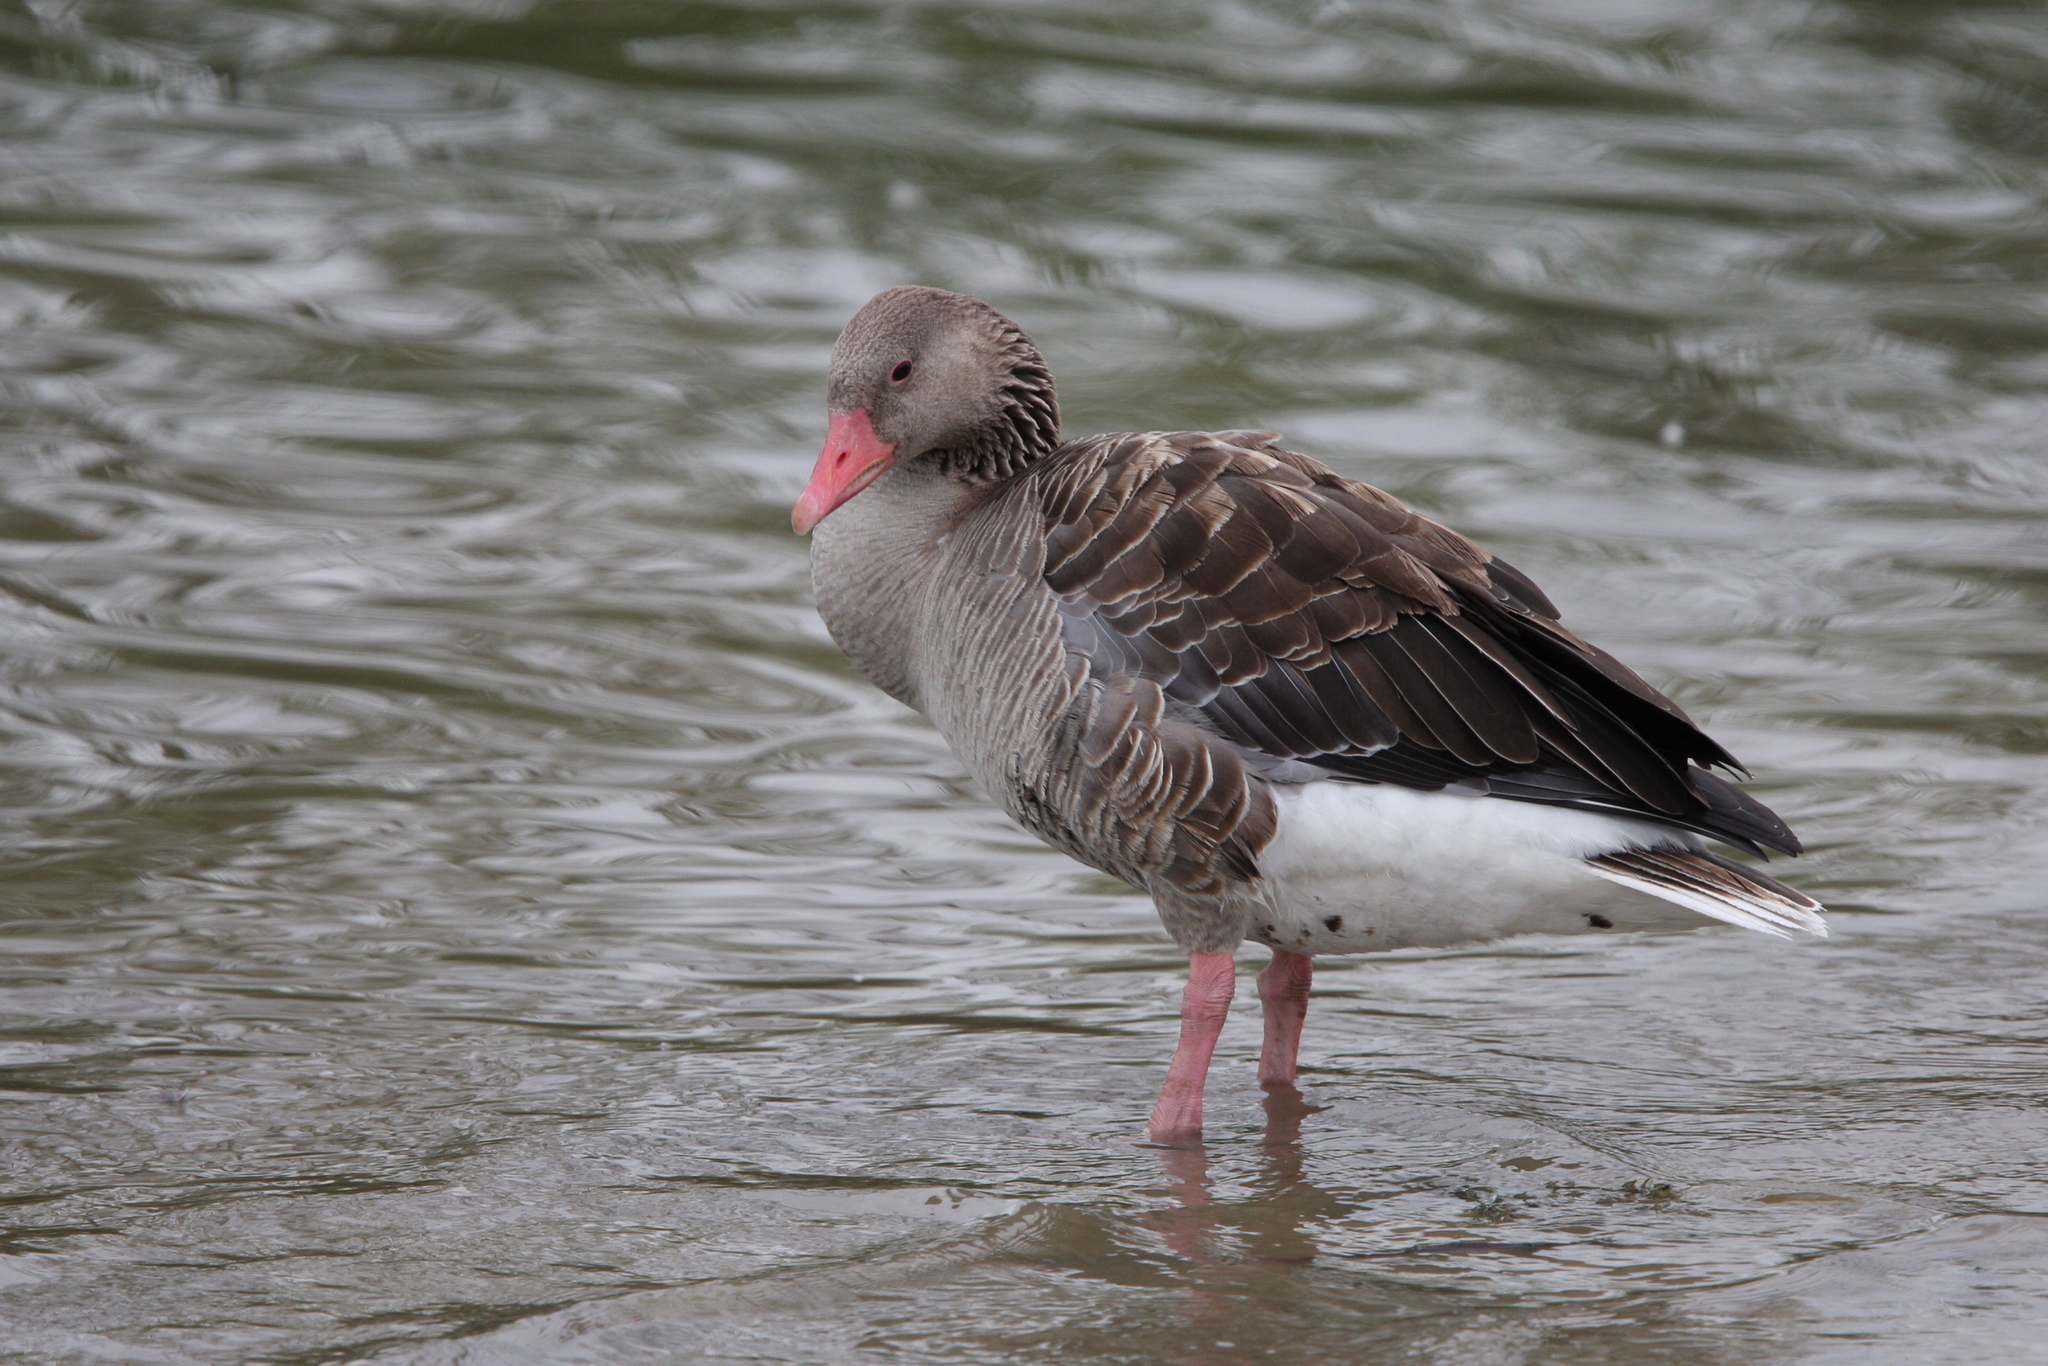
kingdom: Animalia
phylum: Chordata
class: Aves
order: Anseriformes
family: Anatidae
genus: Anser
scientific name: Anser anser
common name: Greylag goose
